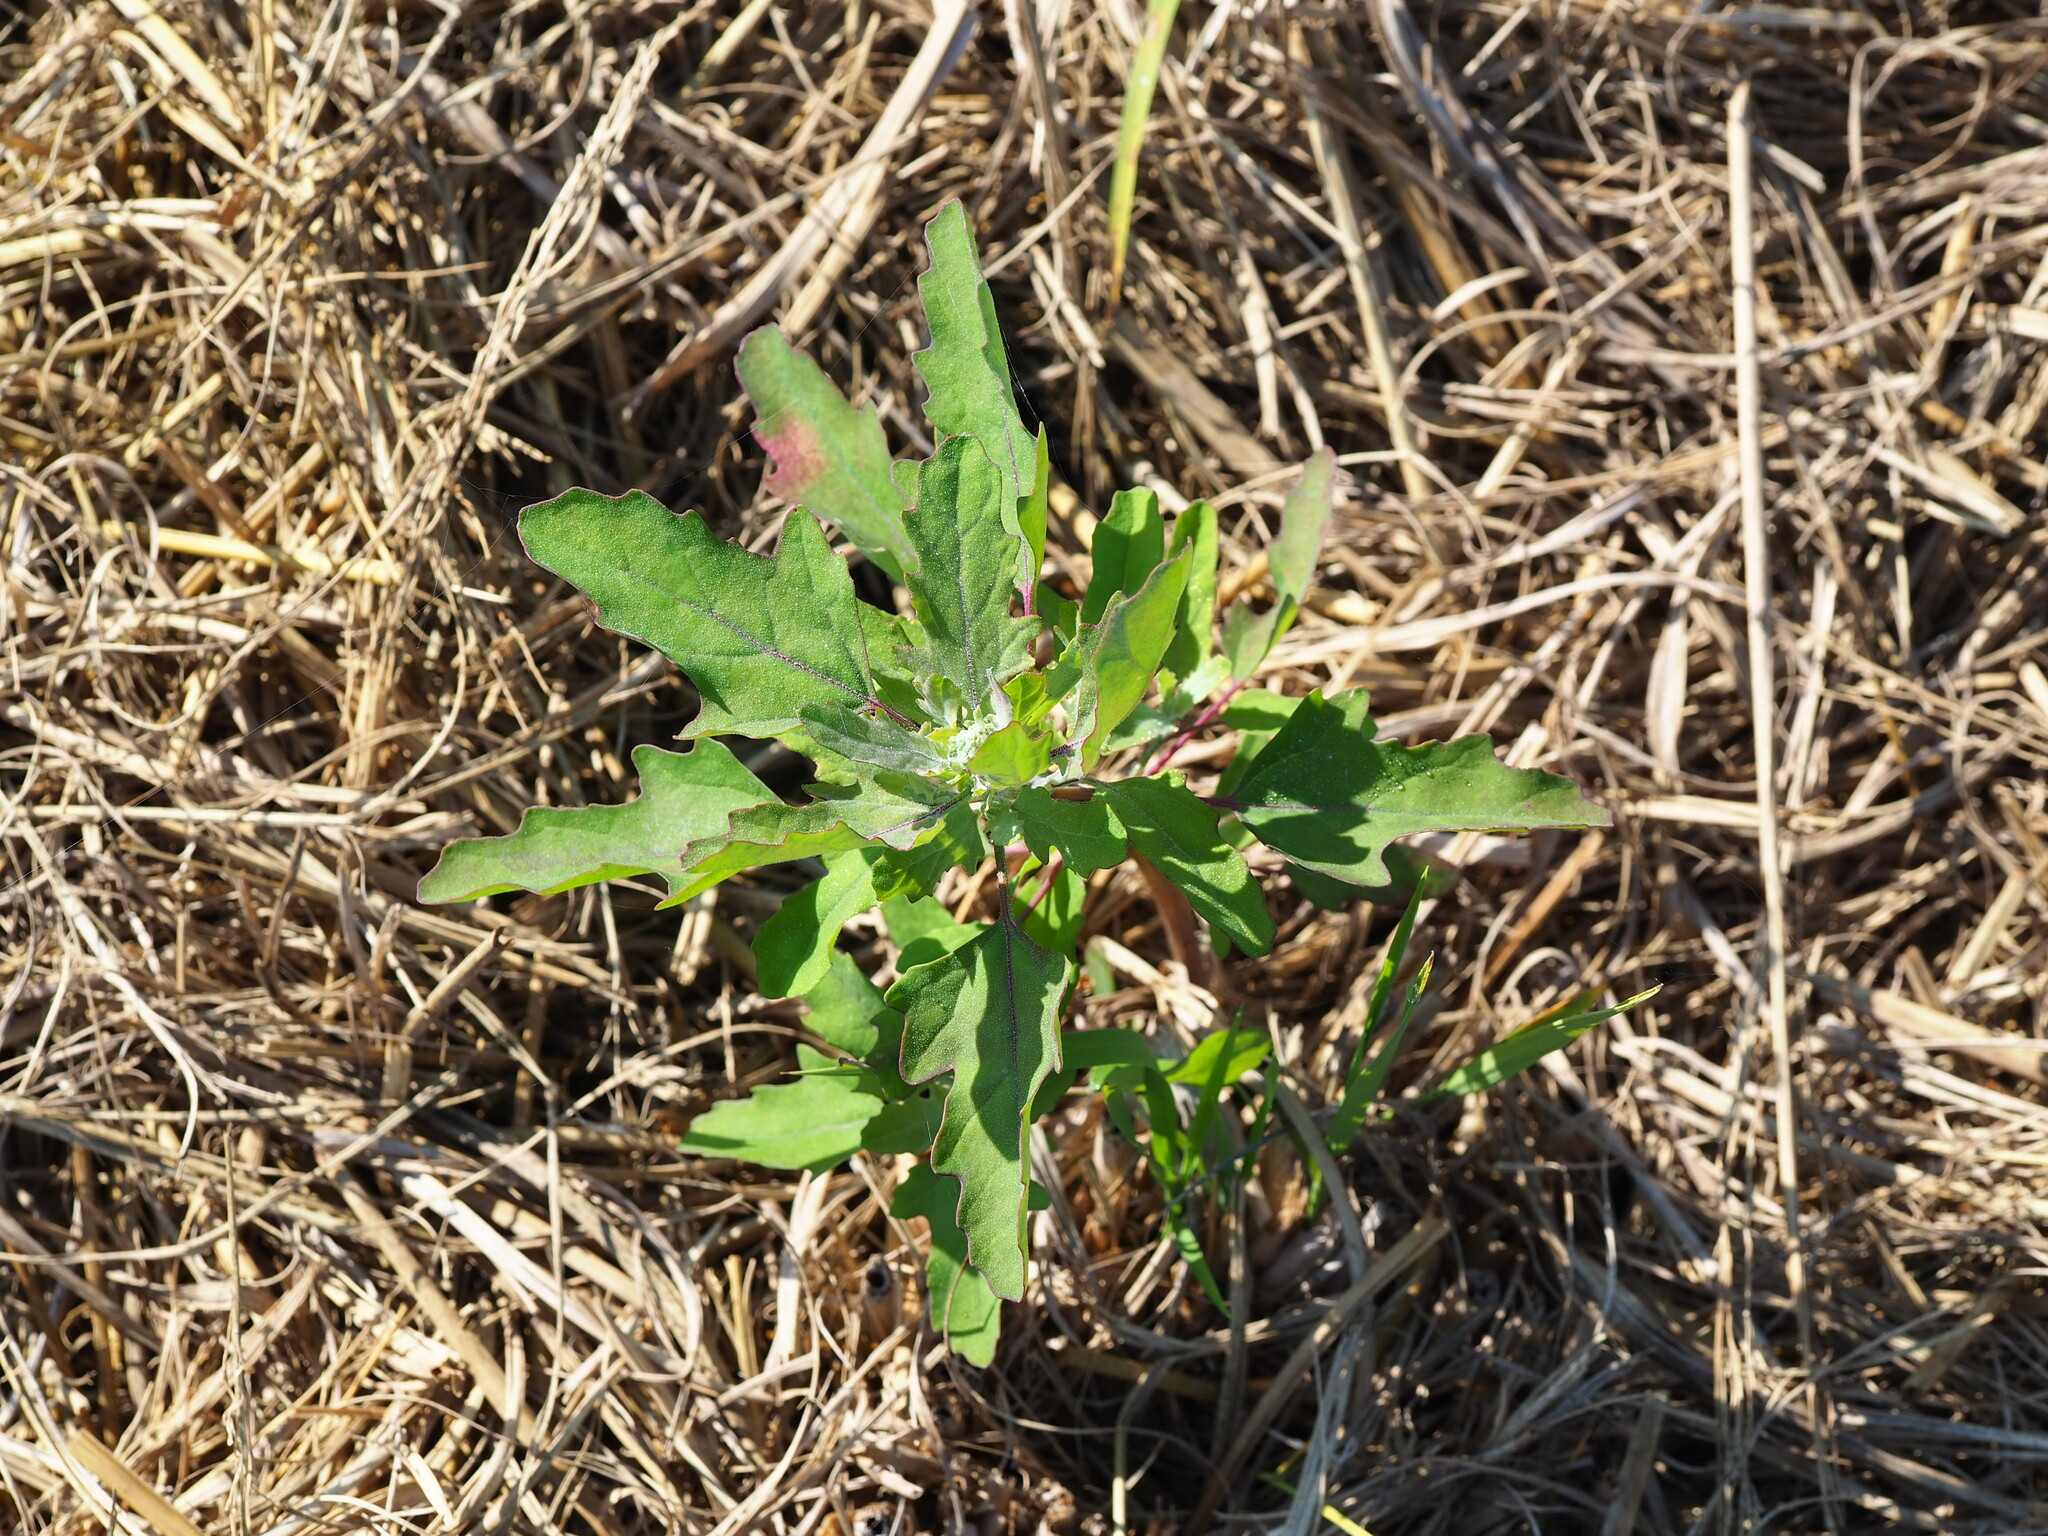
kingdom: Plantae
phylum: Tracheophyta
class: Magnoliopsida
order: Caryophyllales
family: Amaranthaceae
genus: Chenopodium
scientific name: Chenopodium ficifolium
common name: Fig-leaved goosefoot
